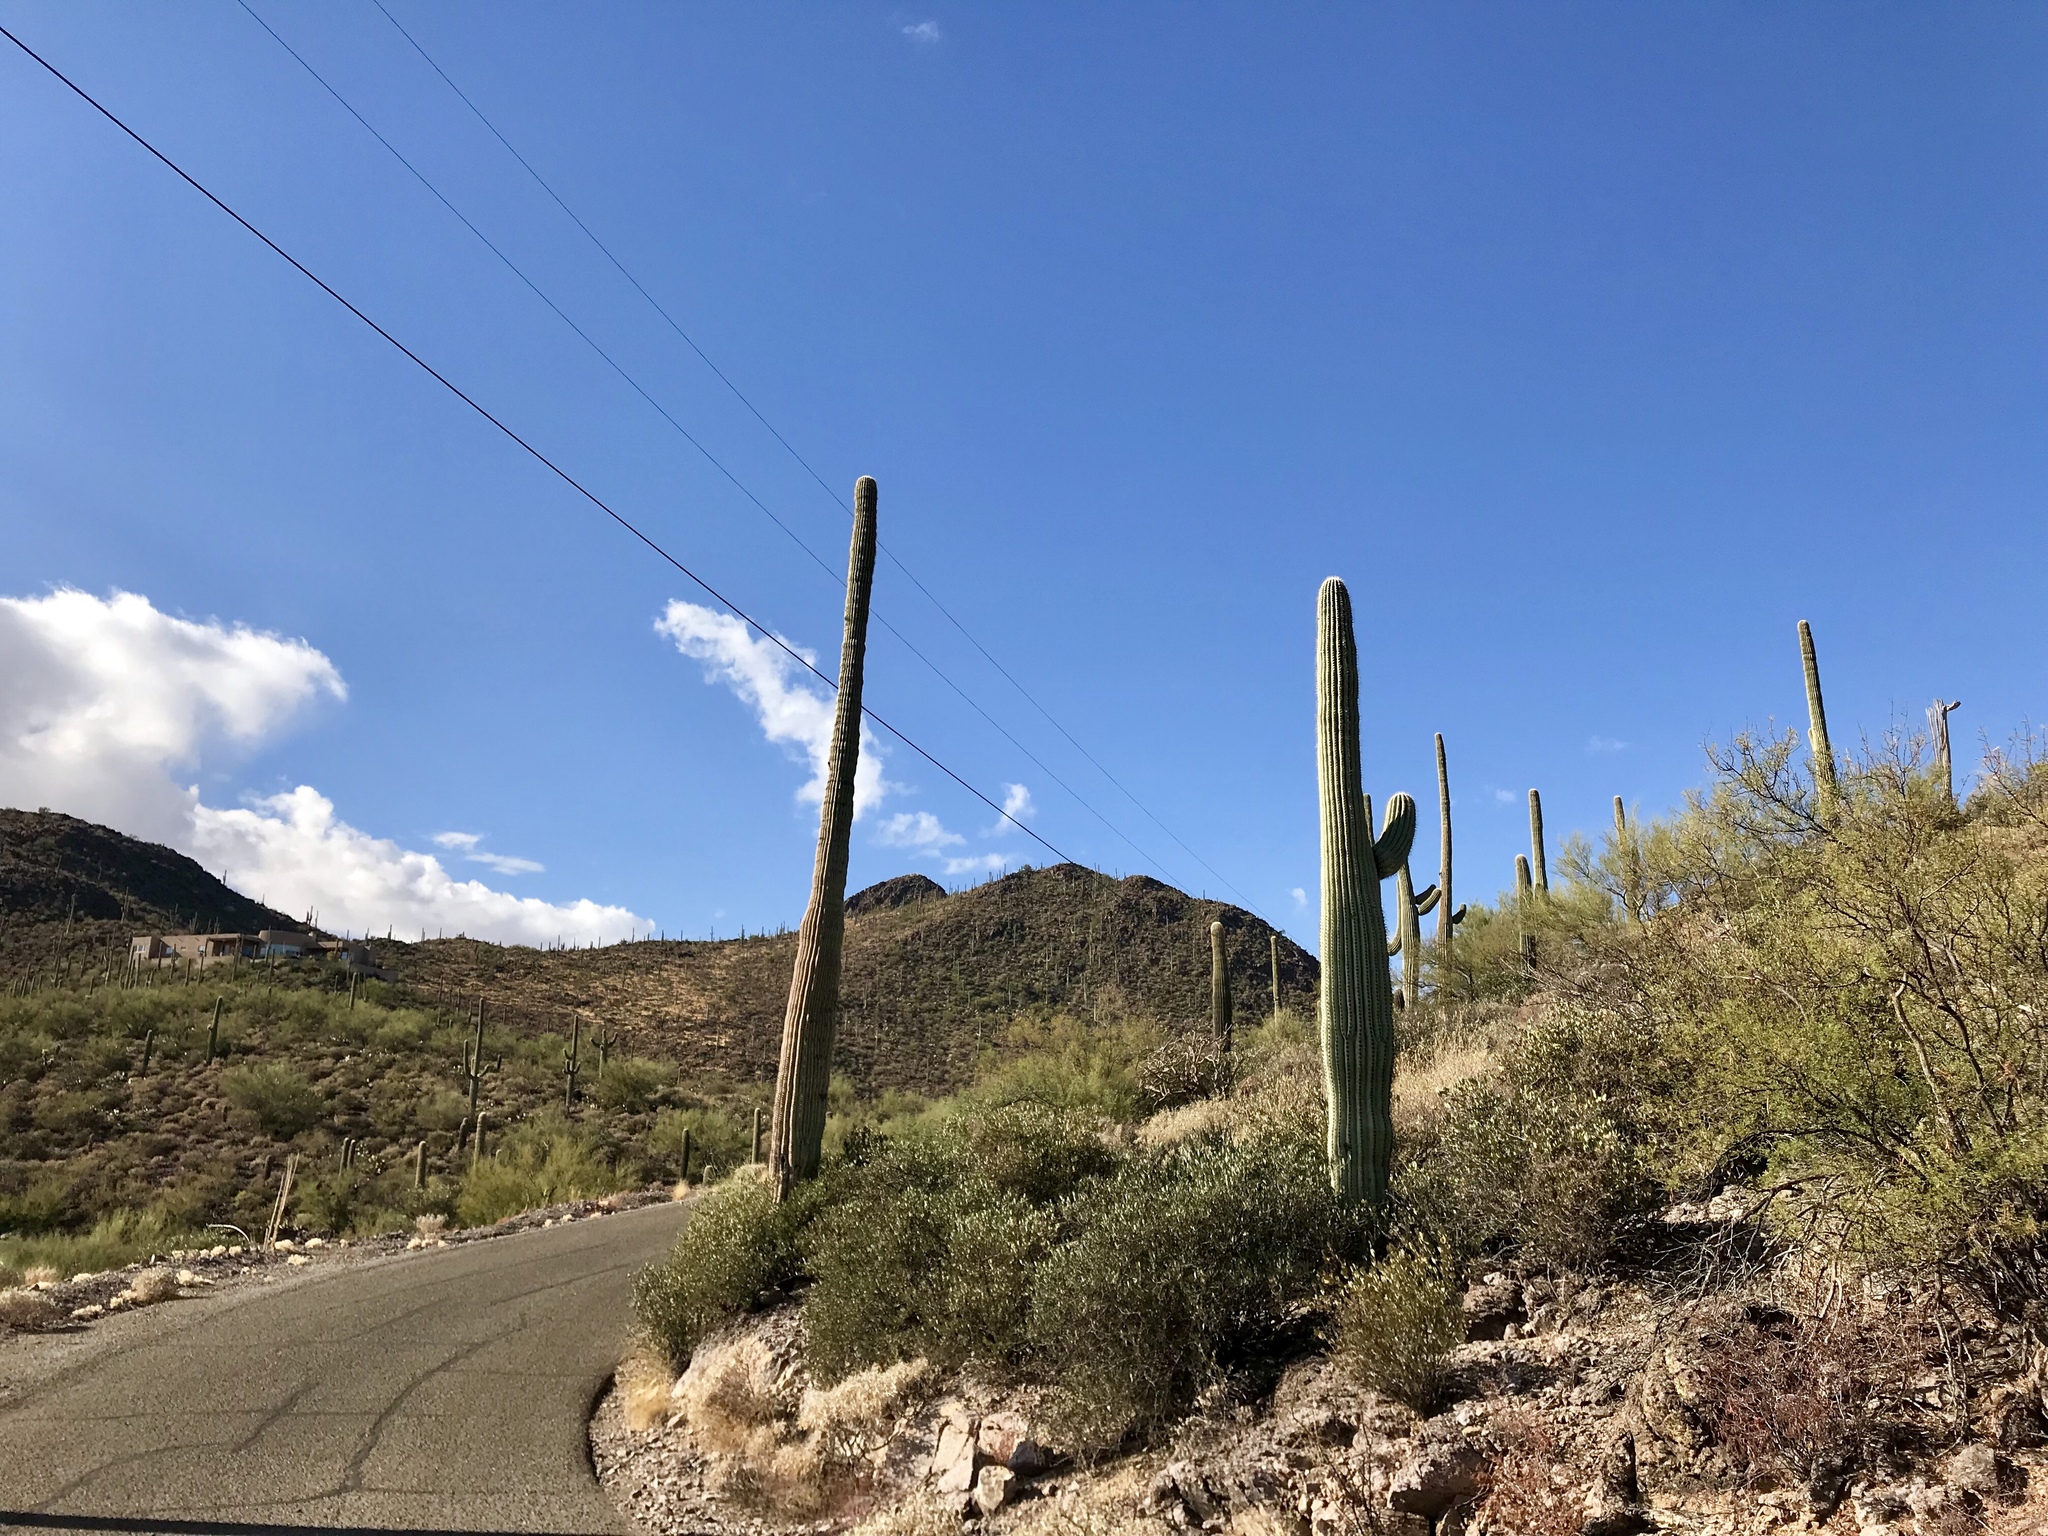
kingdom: Plantae
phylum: Tracheophyta
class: Magnoliopsida
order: Caryophyllales
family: Cactaceae
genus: Carnegiea
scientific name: Carnegiea gigantea
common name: Saguaro
